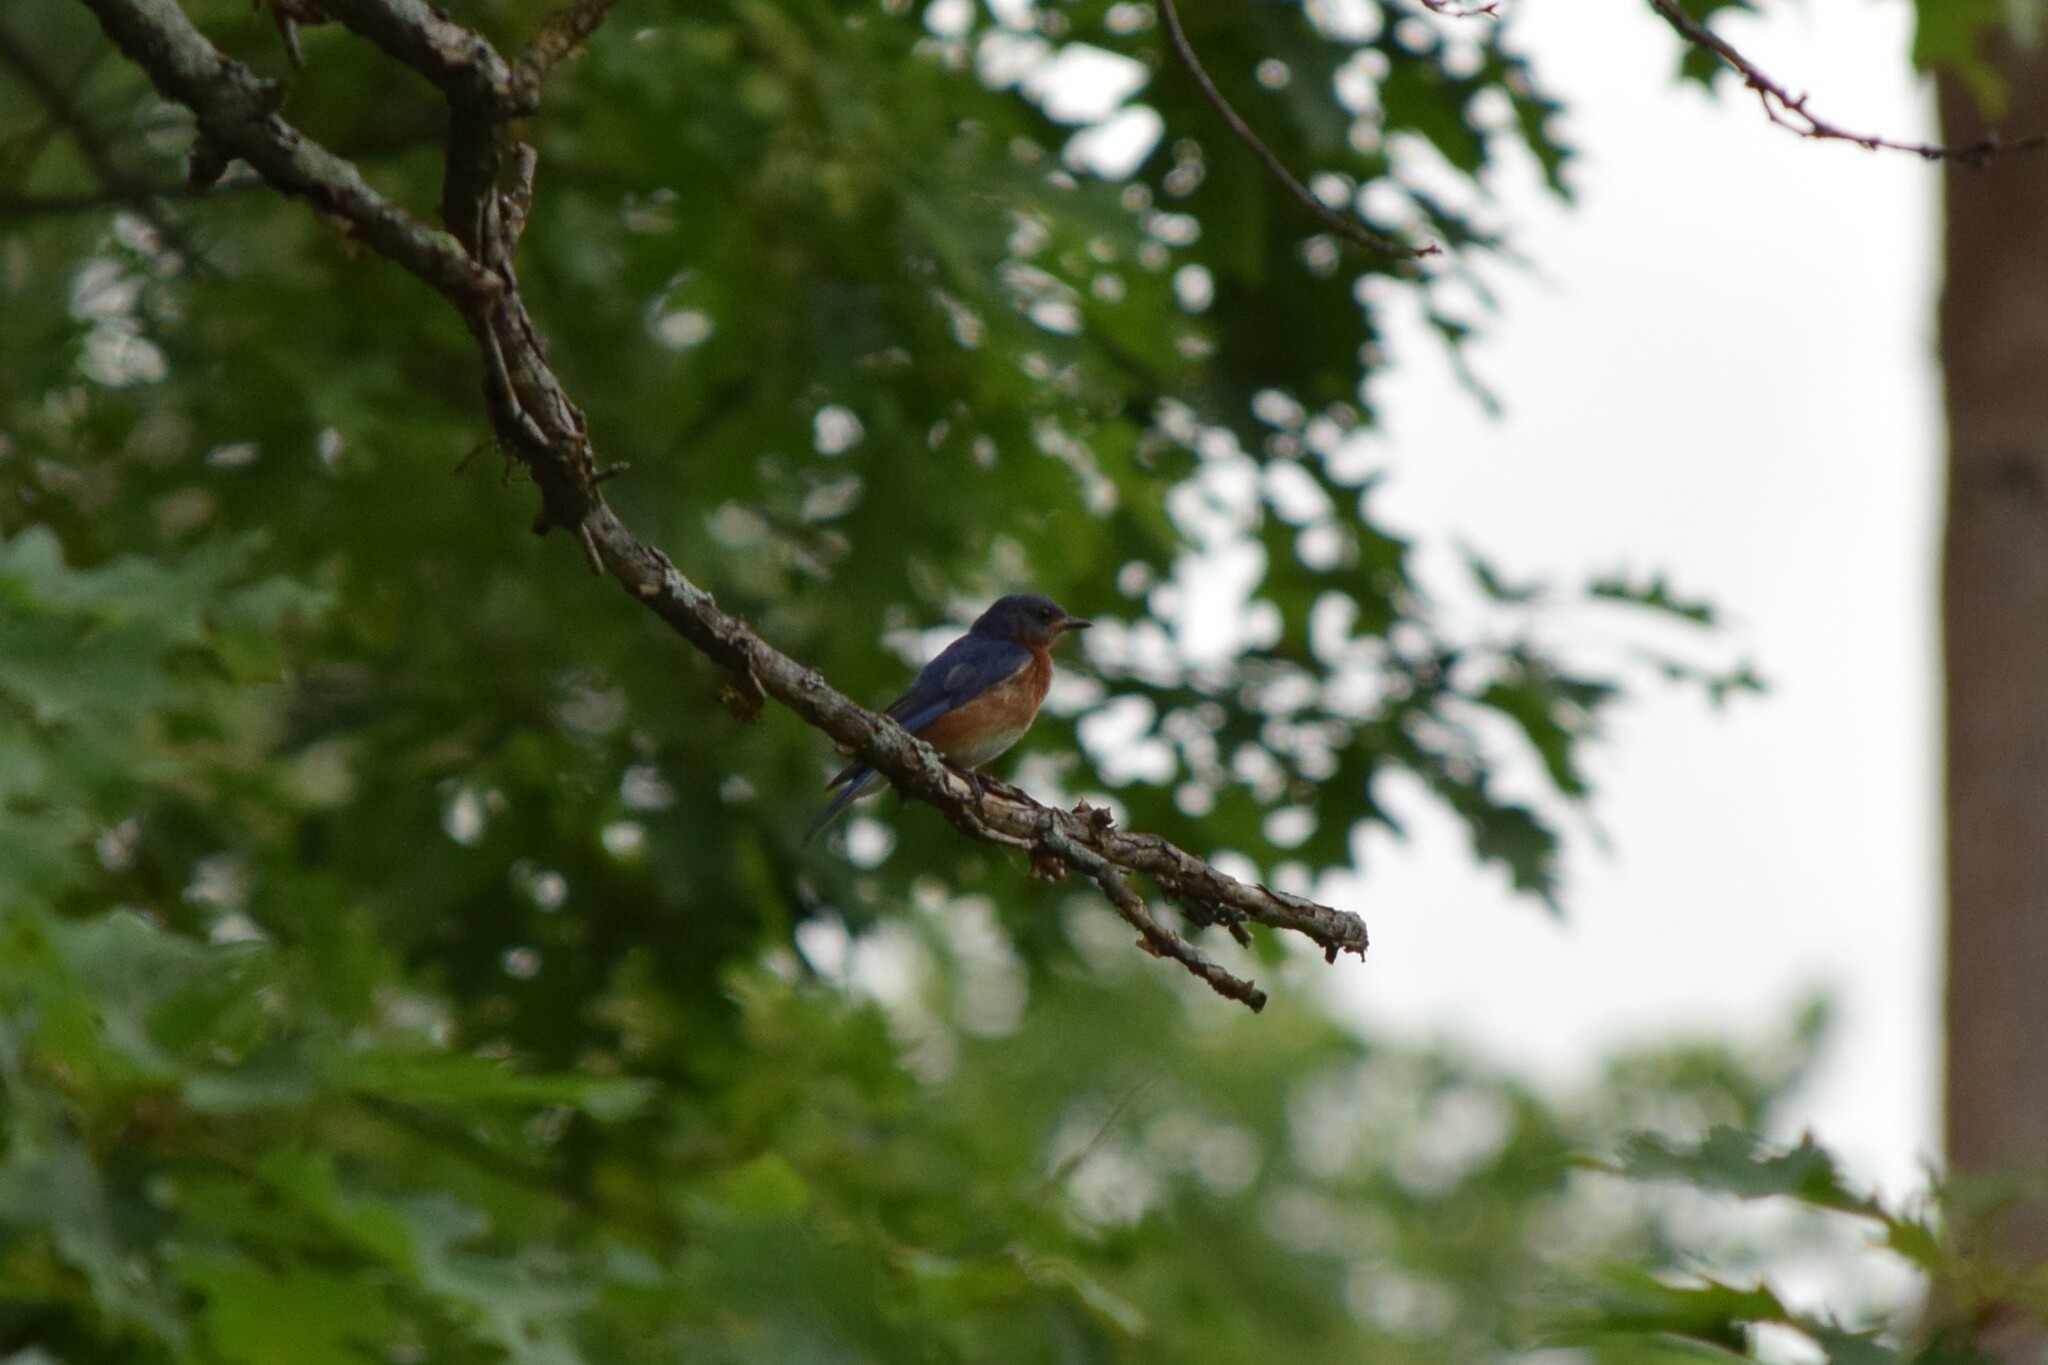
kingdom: Animalia
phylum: Chordata
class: Aves
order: Passeriformes
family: Turdidae
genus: Sialia
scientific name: Sialia sialis
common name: Eastern bluebird
